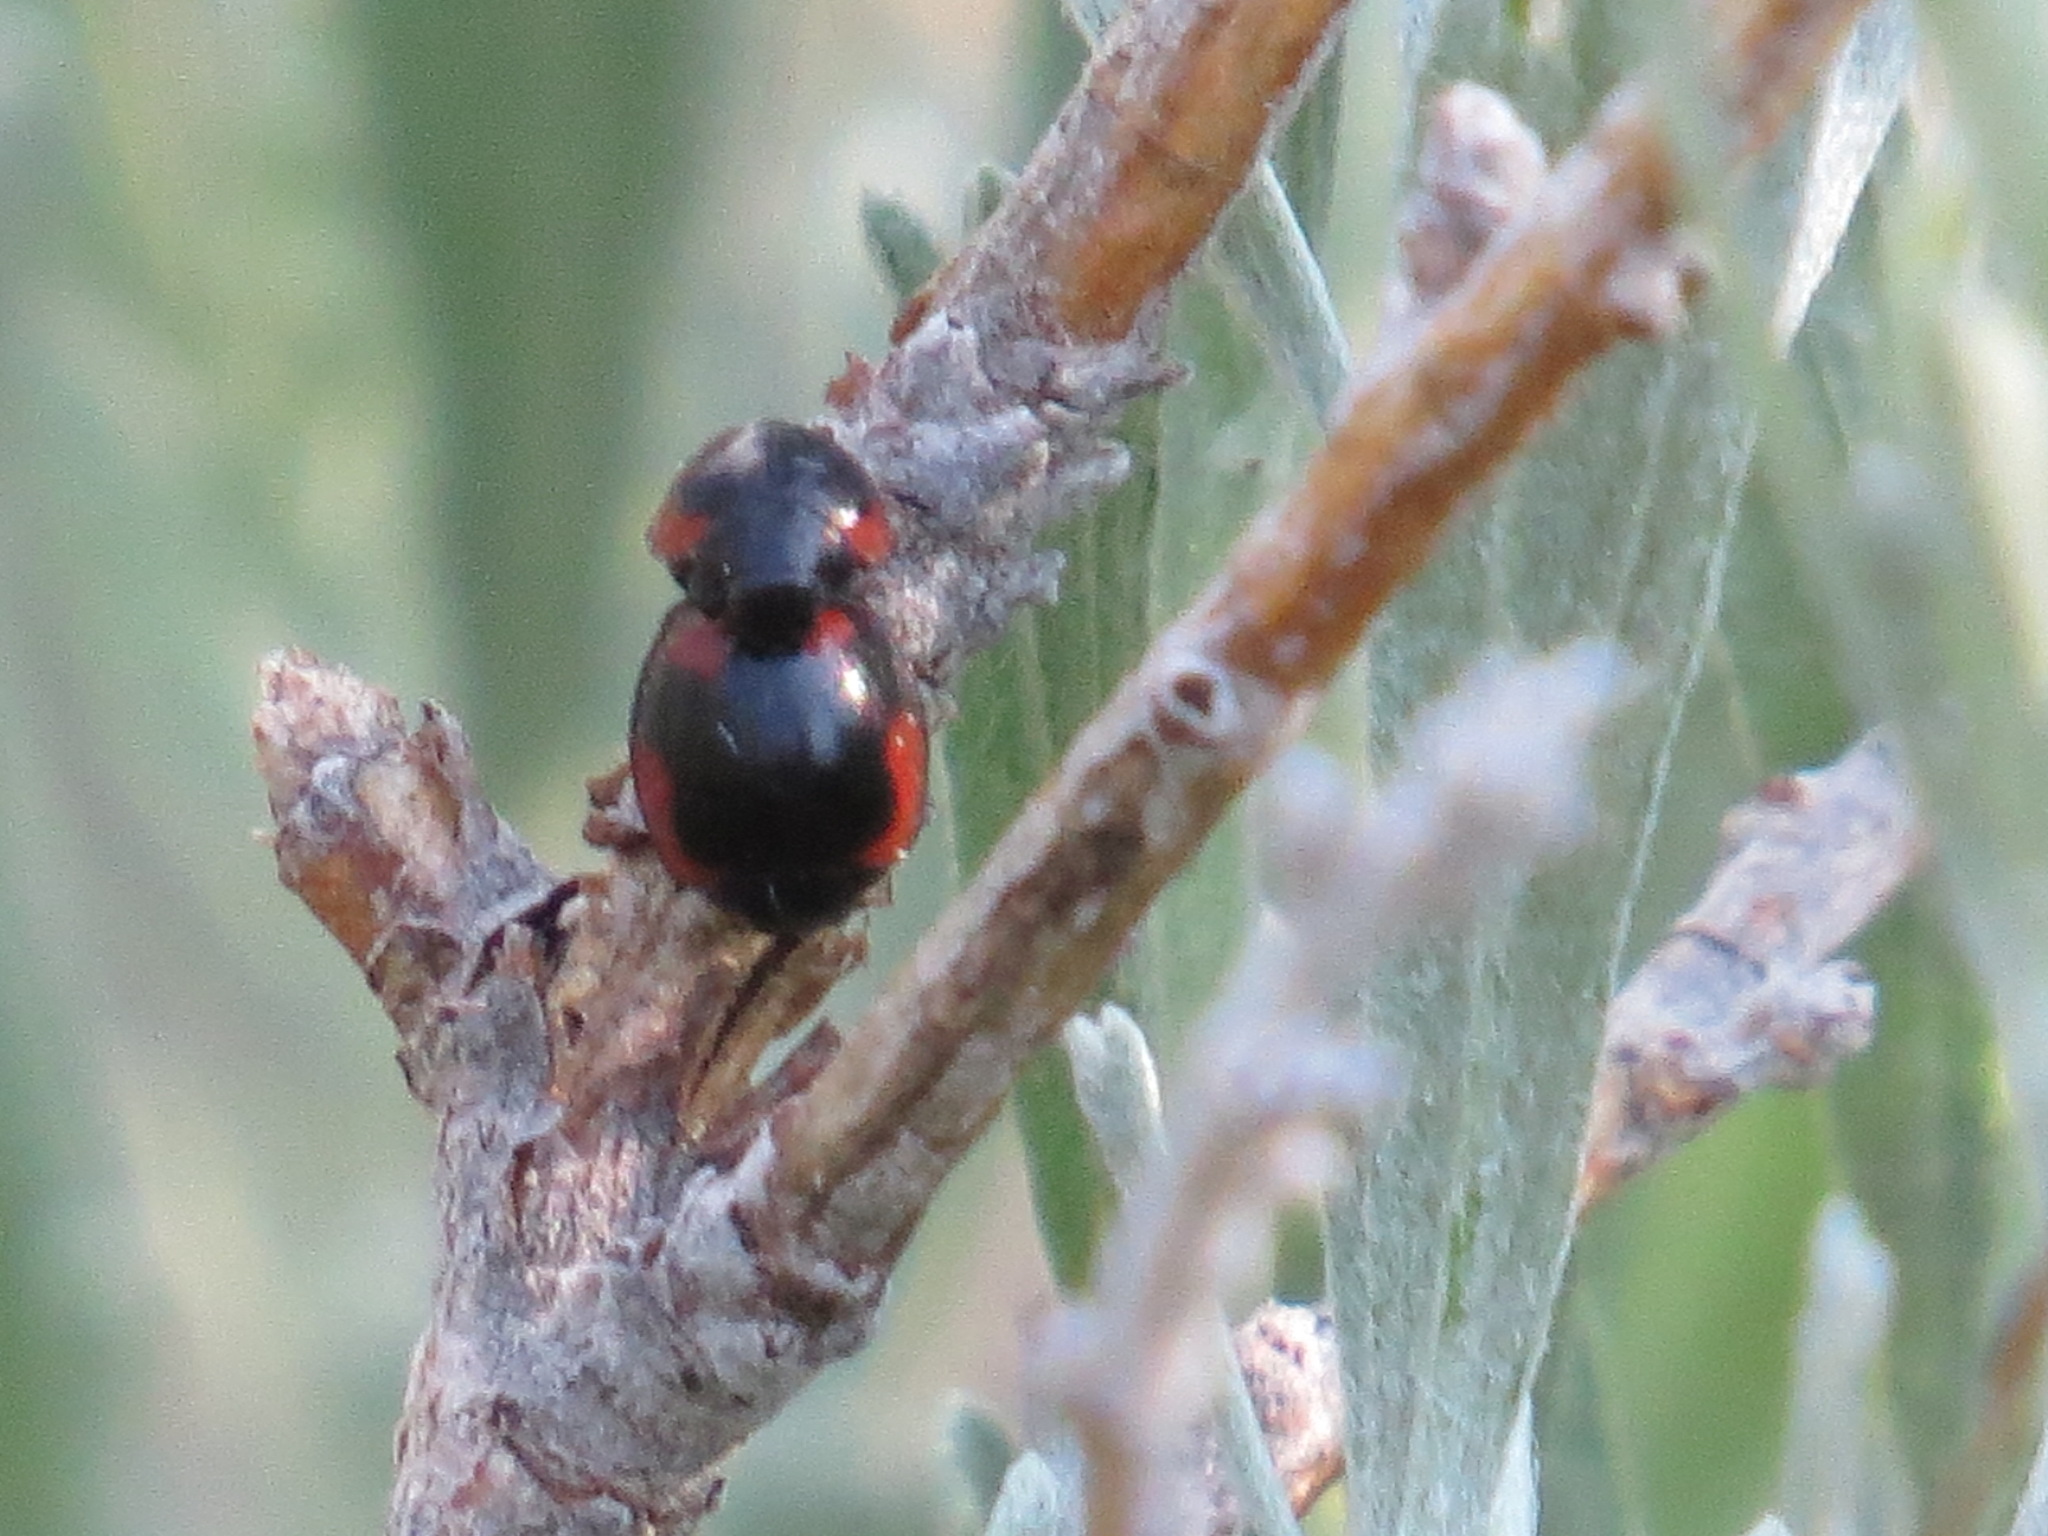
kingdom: Animalia
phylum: Arthropoda
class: Insecta
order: Coleoptera
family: Coccinellidae
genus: Brumoides
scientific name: Brumoides histrio
